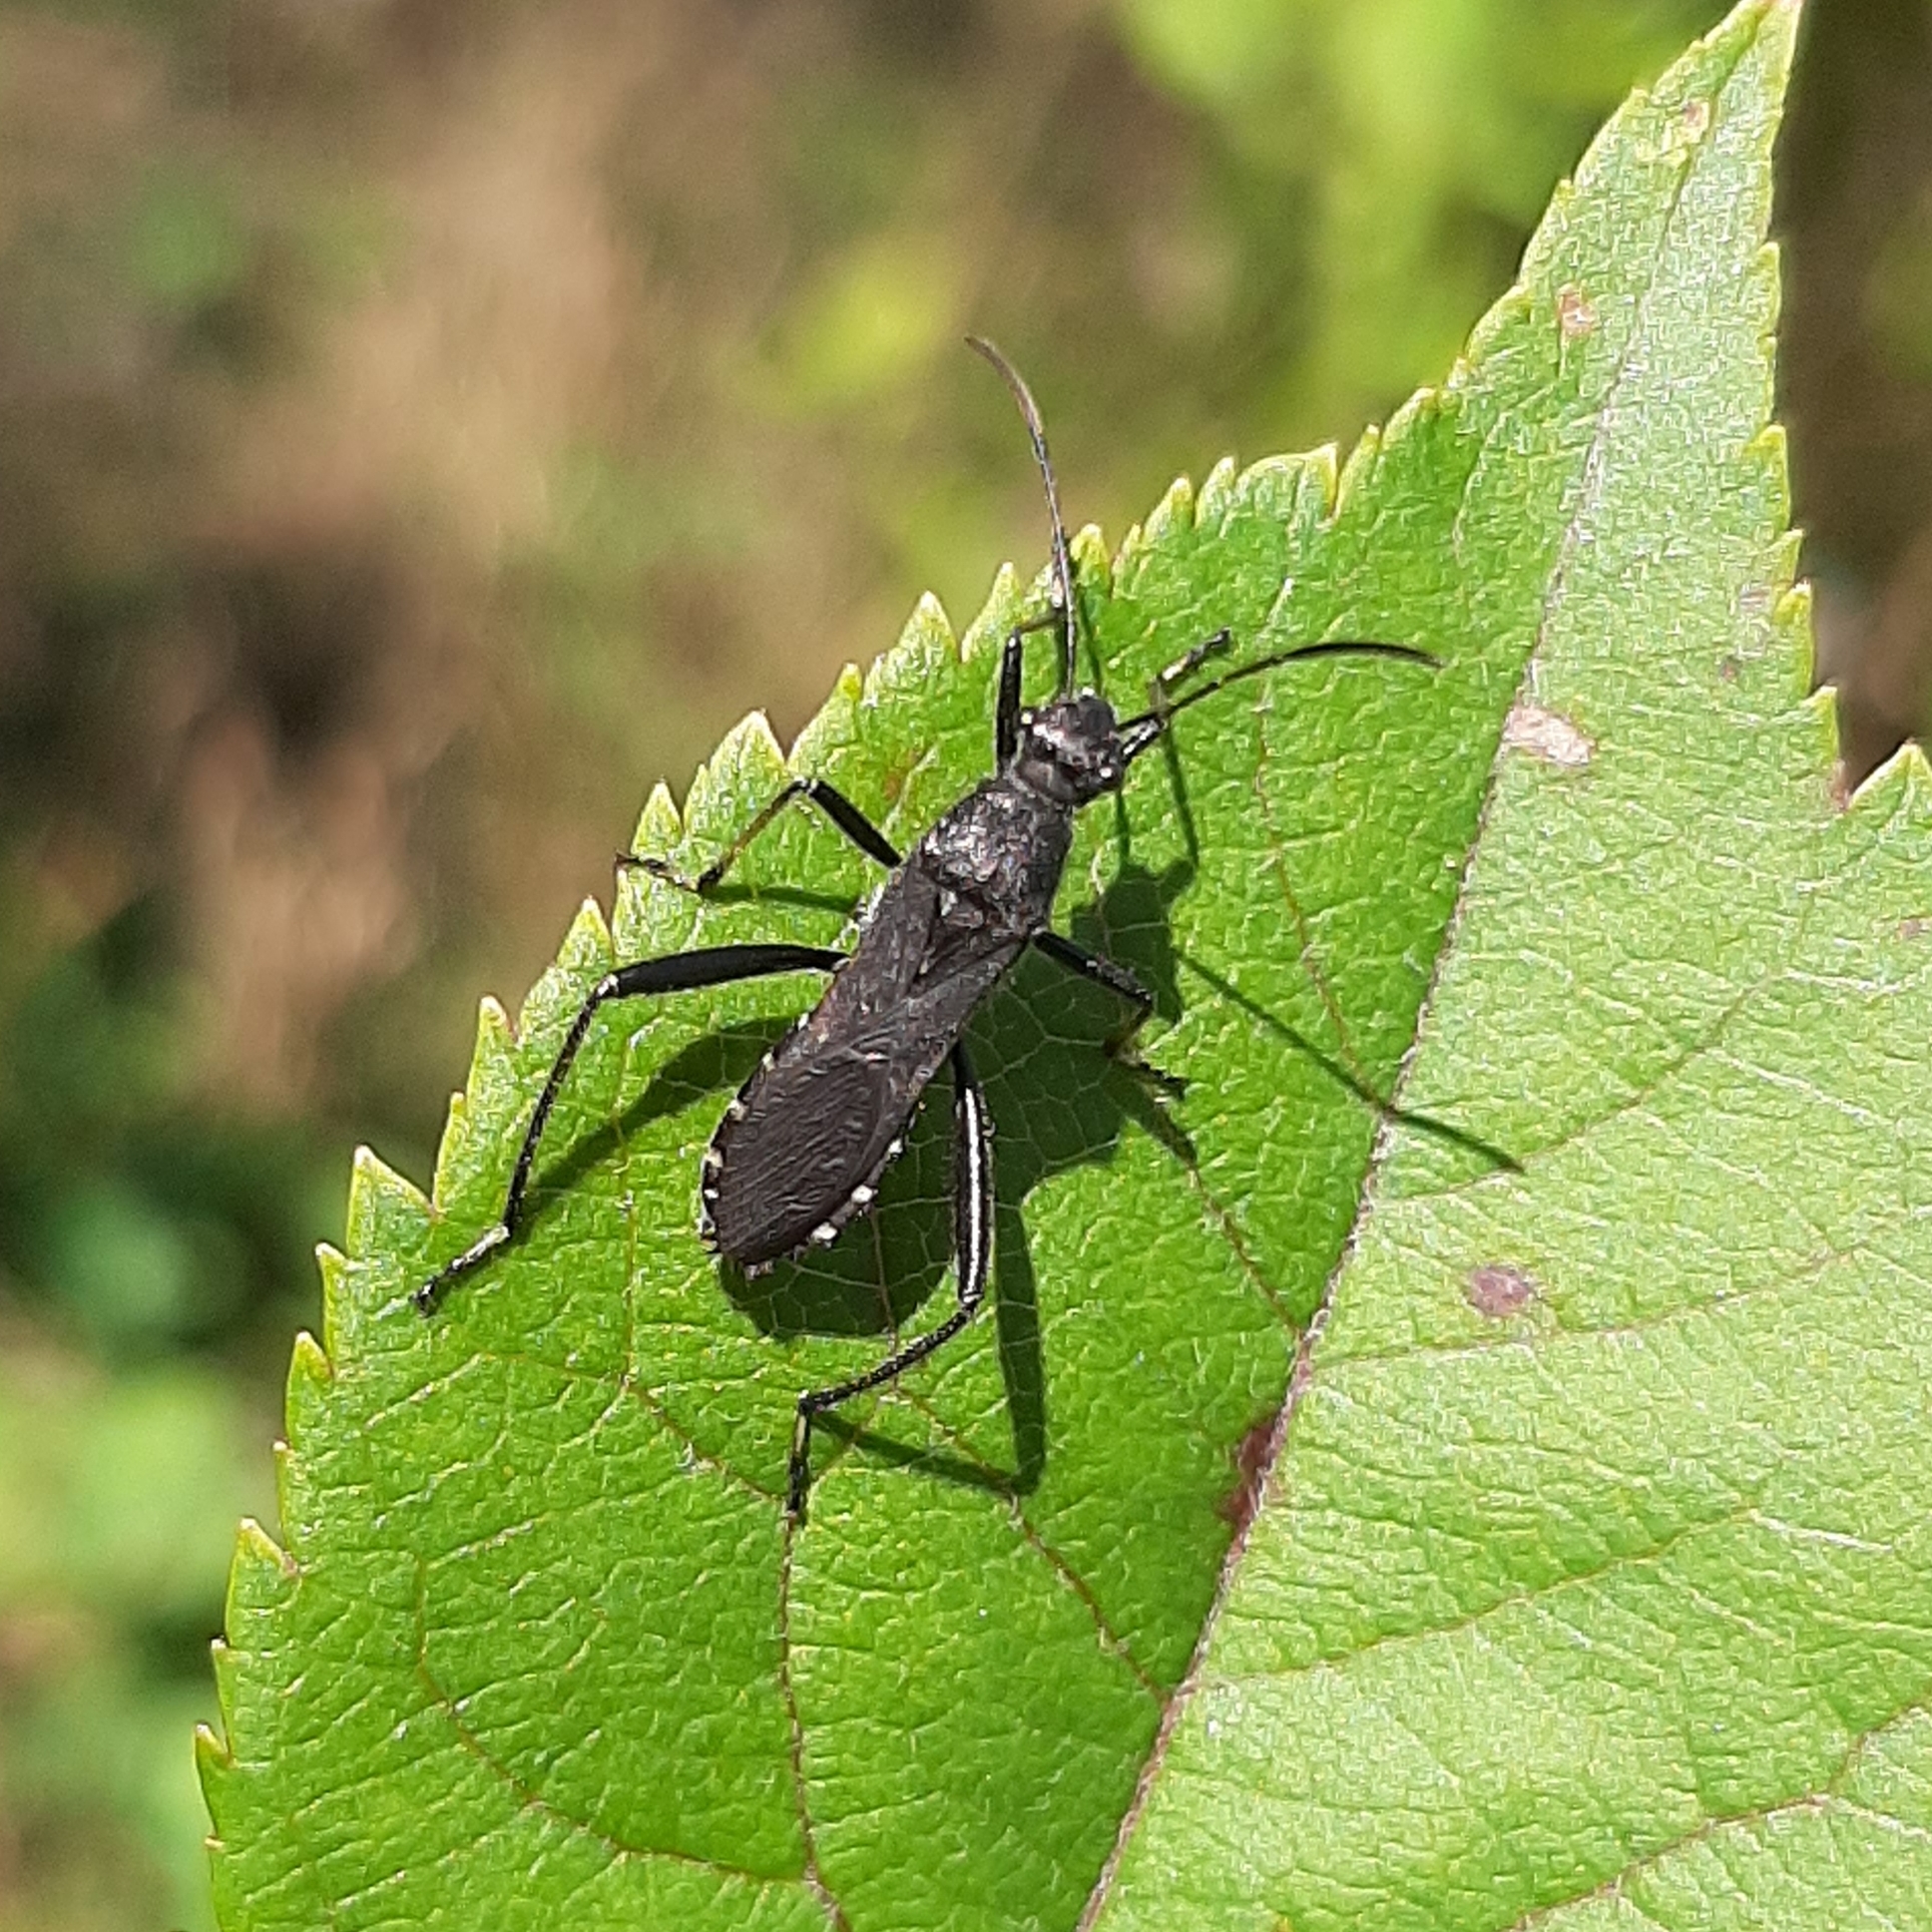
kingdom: Animalia
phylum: Arthropoda
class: Insecta
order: Hemiptera
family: Alydidae
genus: Alydus
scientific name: Alydus eurinus
